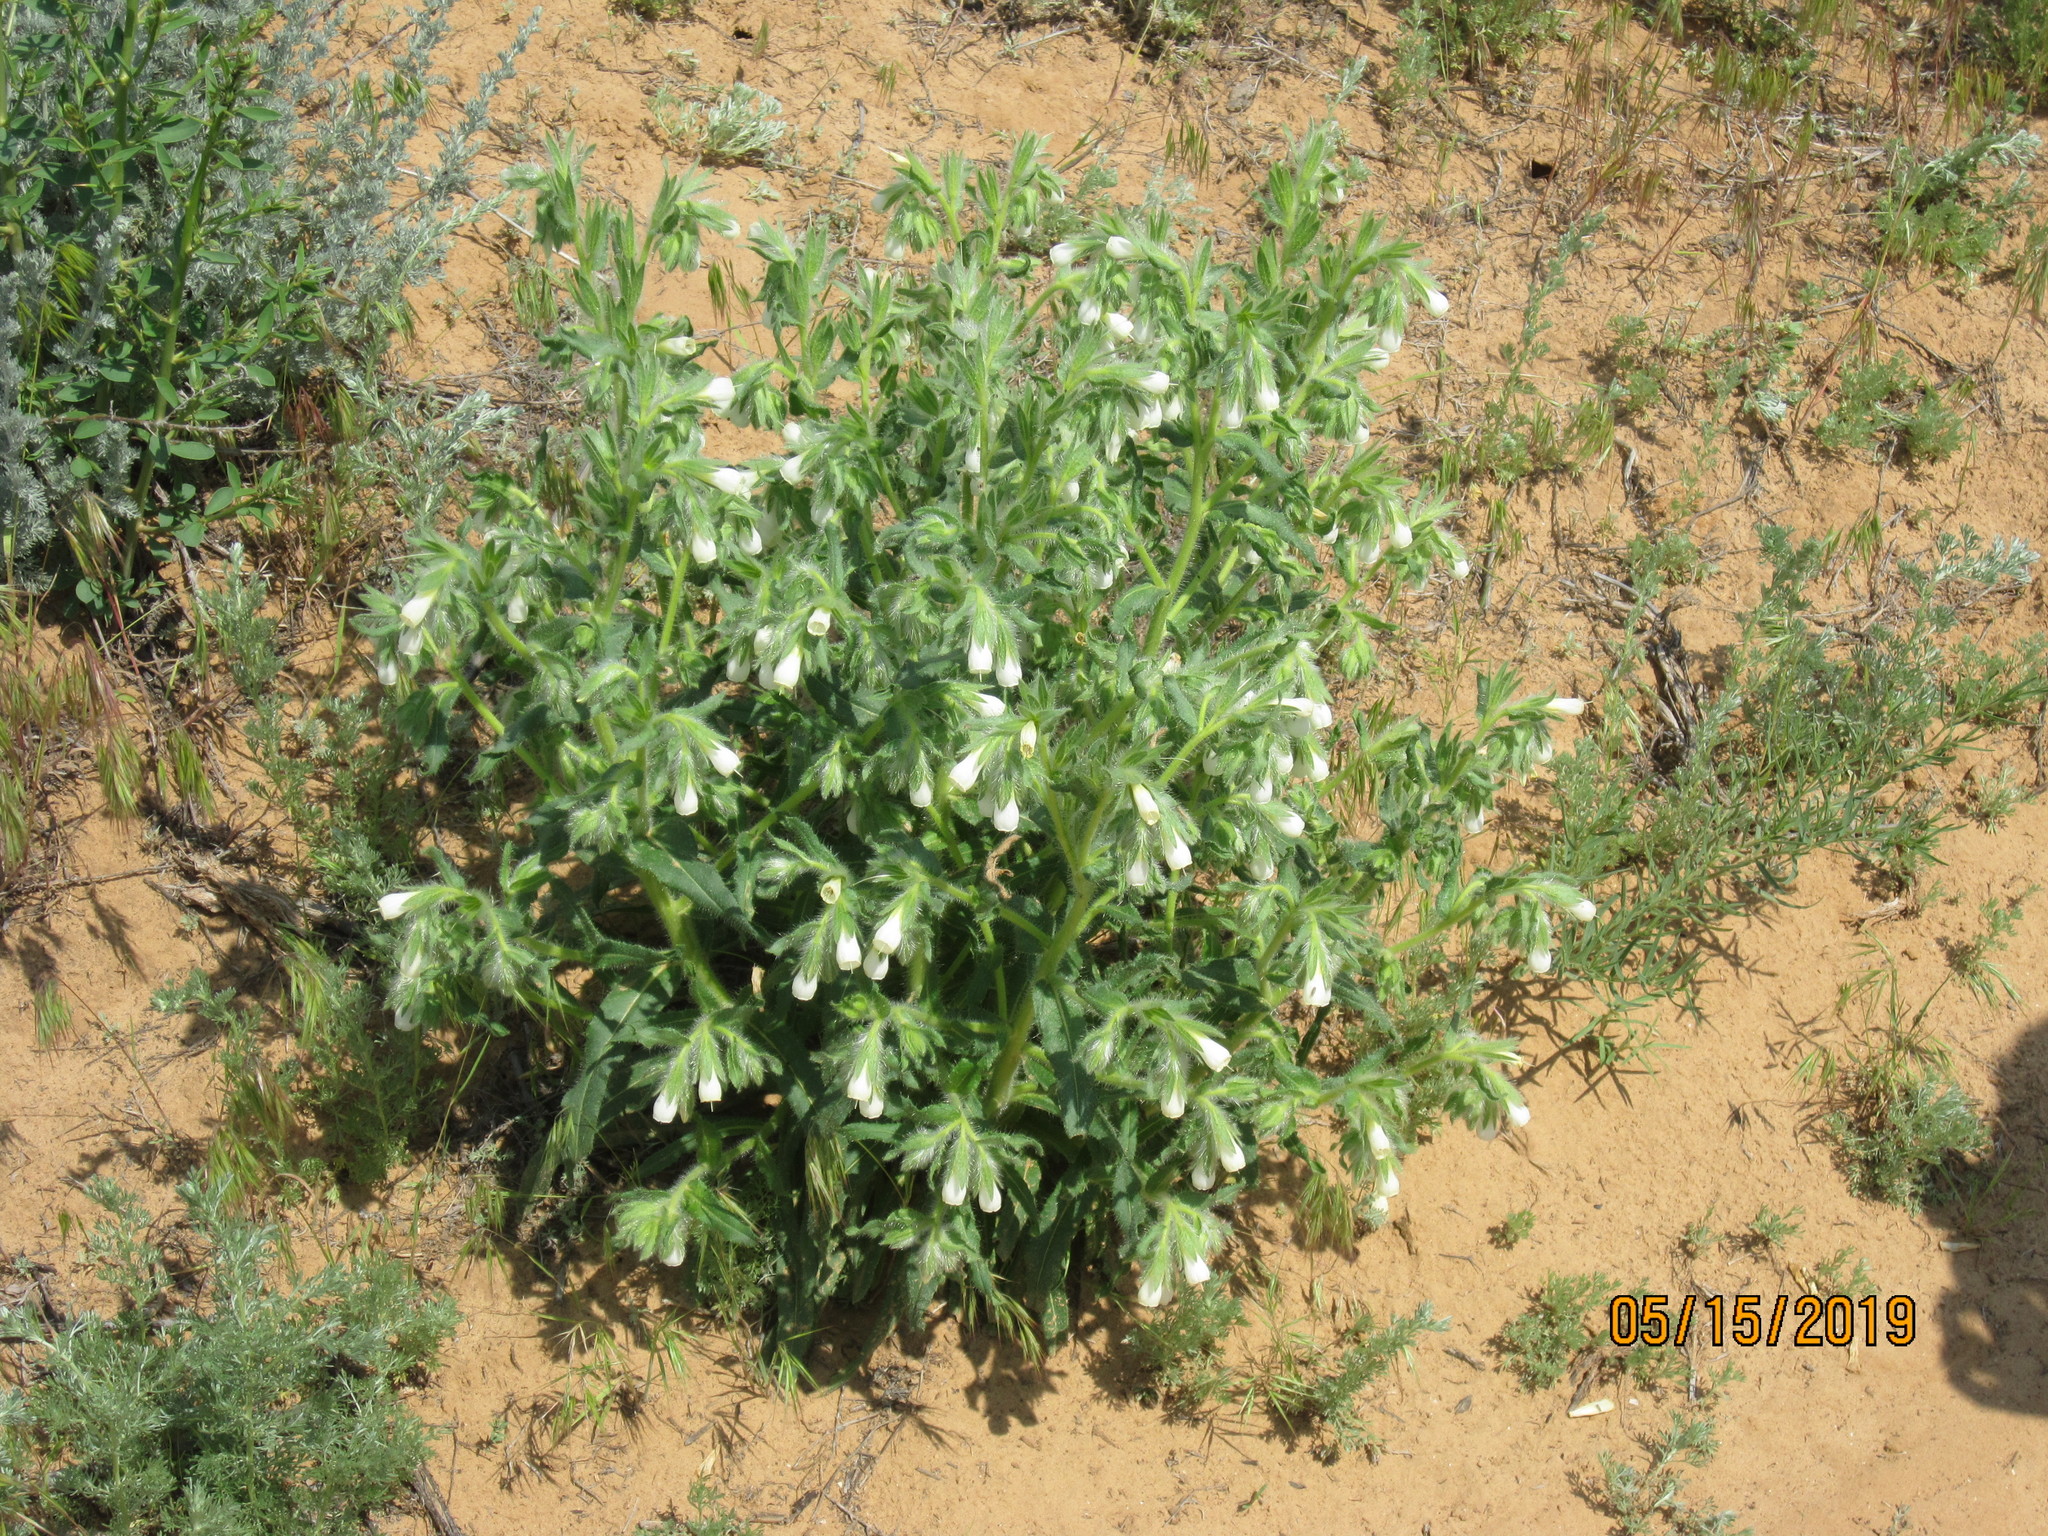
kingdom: Plantae
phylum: Tracheophyta
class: Magnoliopsida
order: Boraginales
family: Boraginaceae
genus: Onosma
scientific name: Onosma setosa
